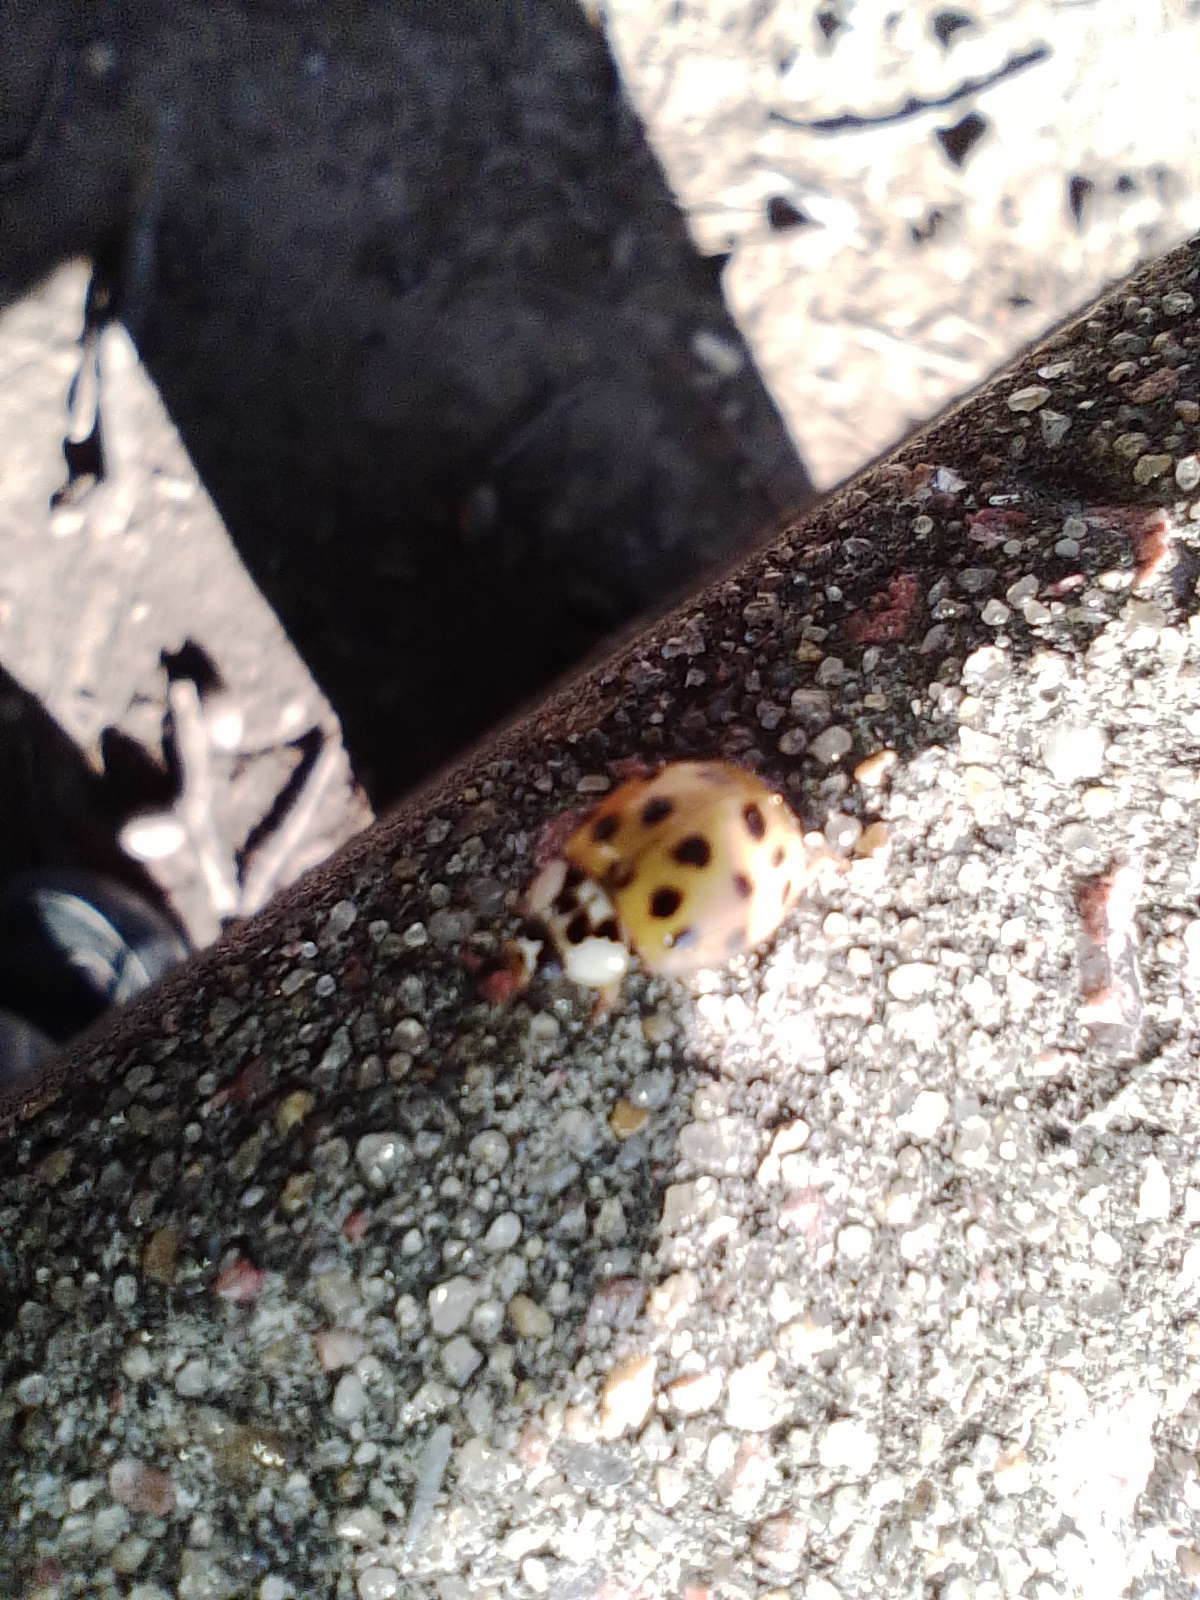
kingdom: Animalia
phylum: Arthropoda
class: Insecta
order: Coleoptera
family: Coccinellidae
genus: Harmonia
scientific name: Harmonia axyridis
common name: Harlequin ladybird
